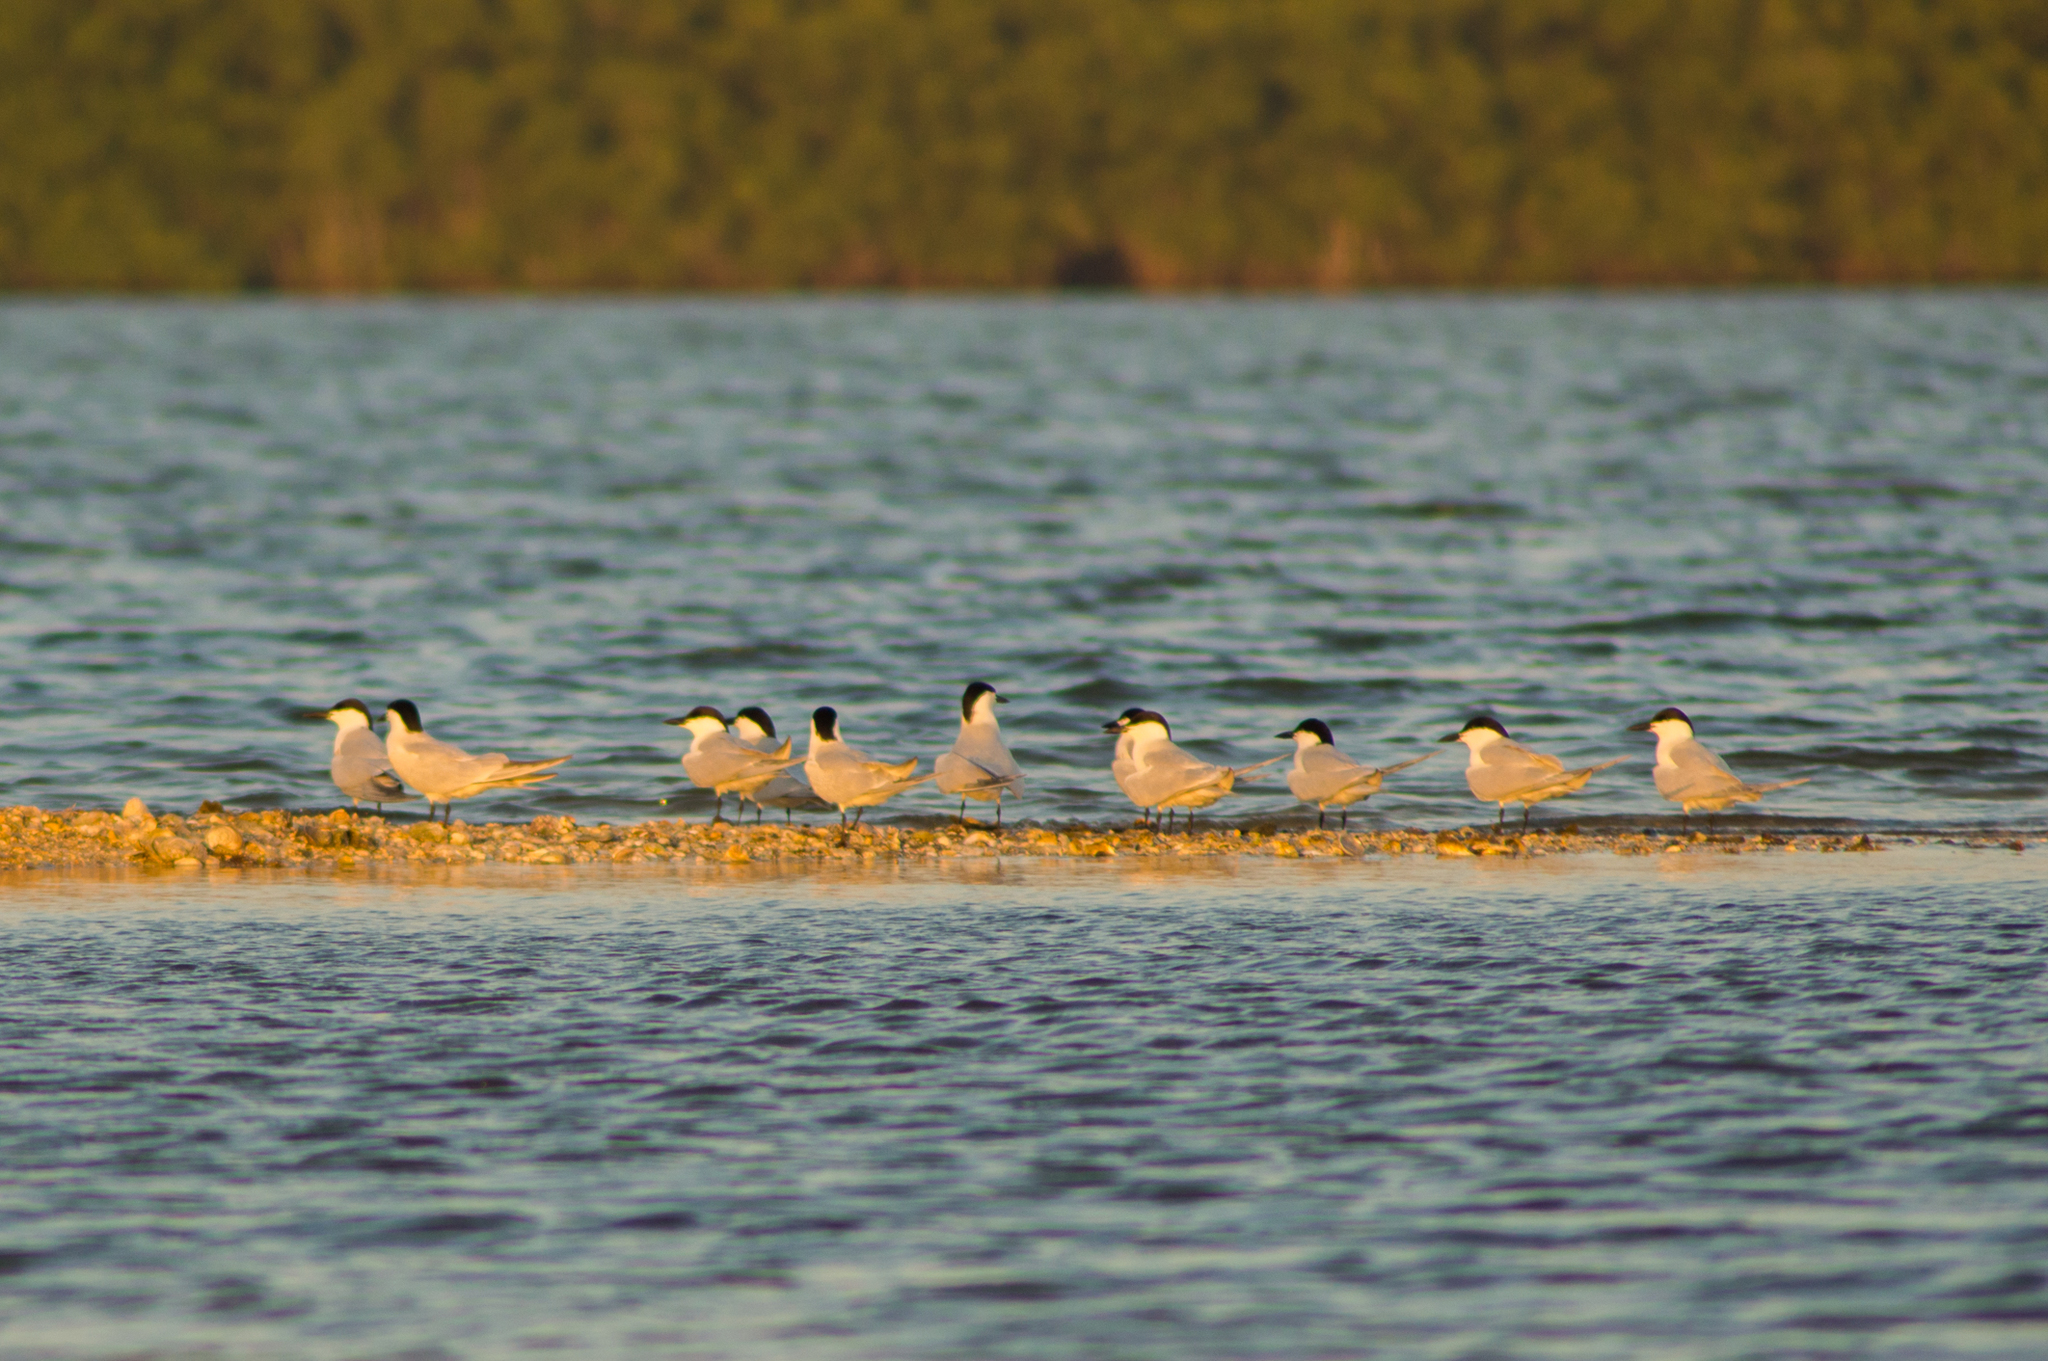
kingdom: Animalia
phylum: Chordata
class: Aves
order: Charadriiformes
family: Laridae
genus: Gelochelidon
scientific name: Gelochelidon nilotica
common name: Gull-billed tern
